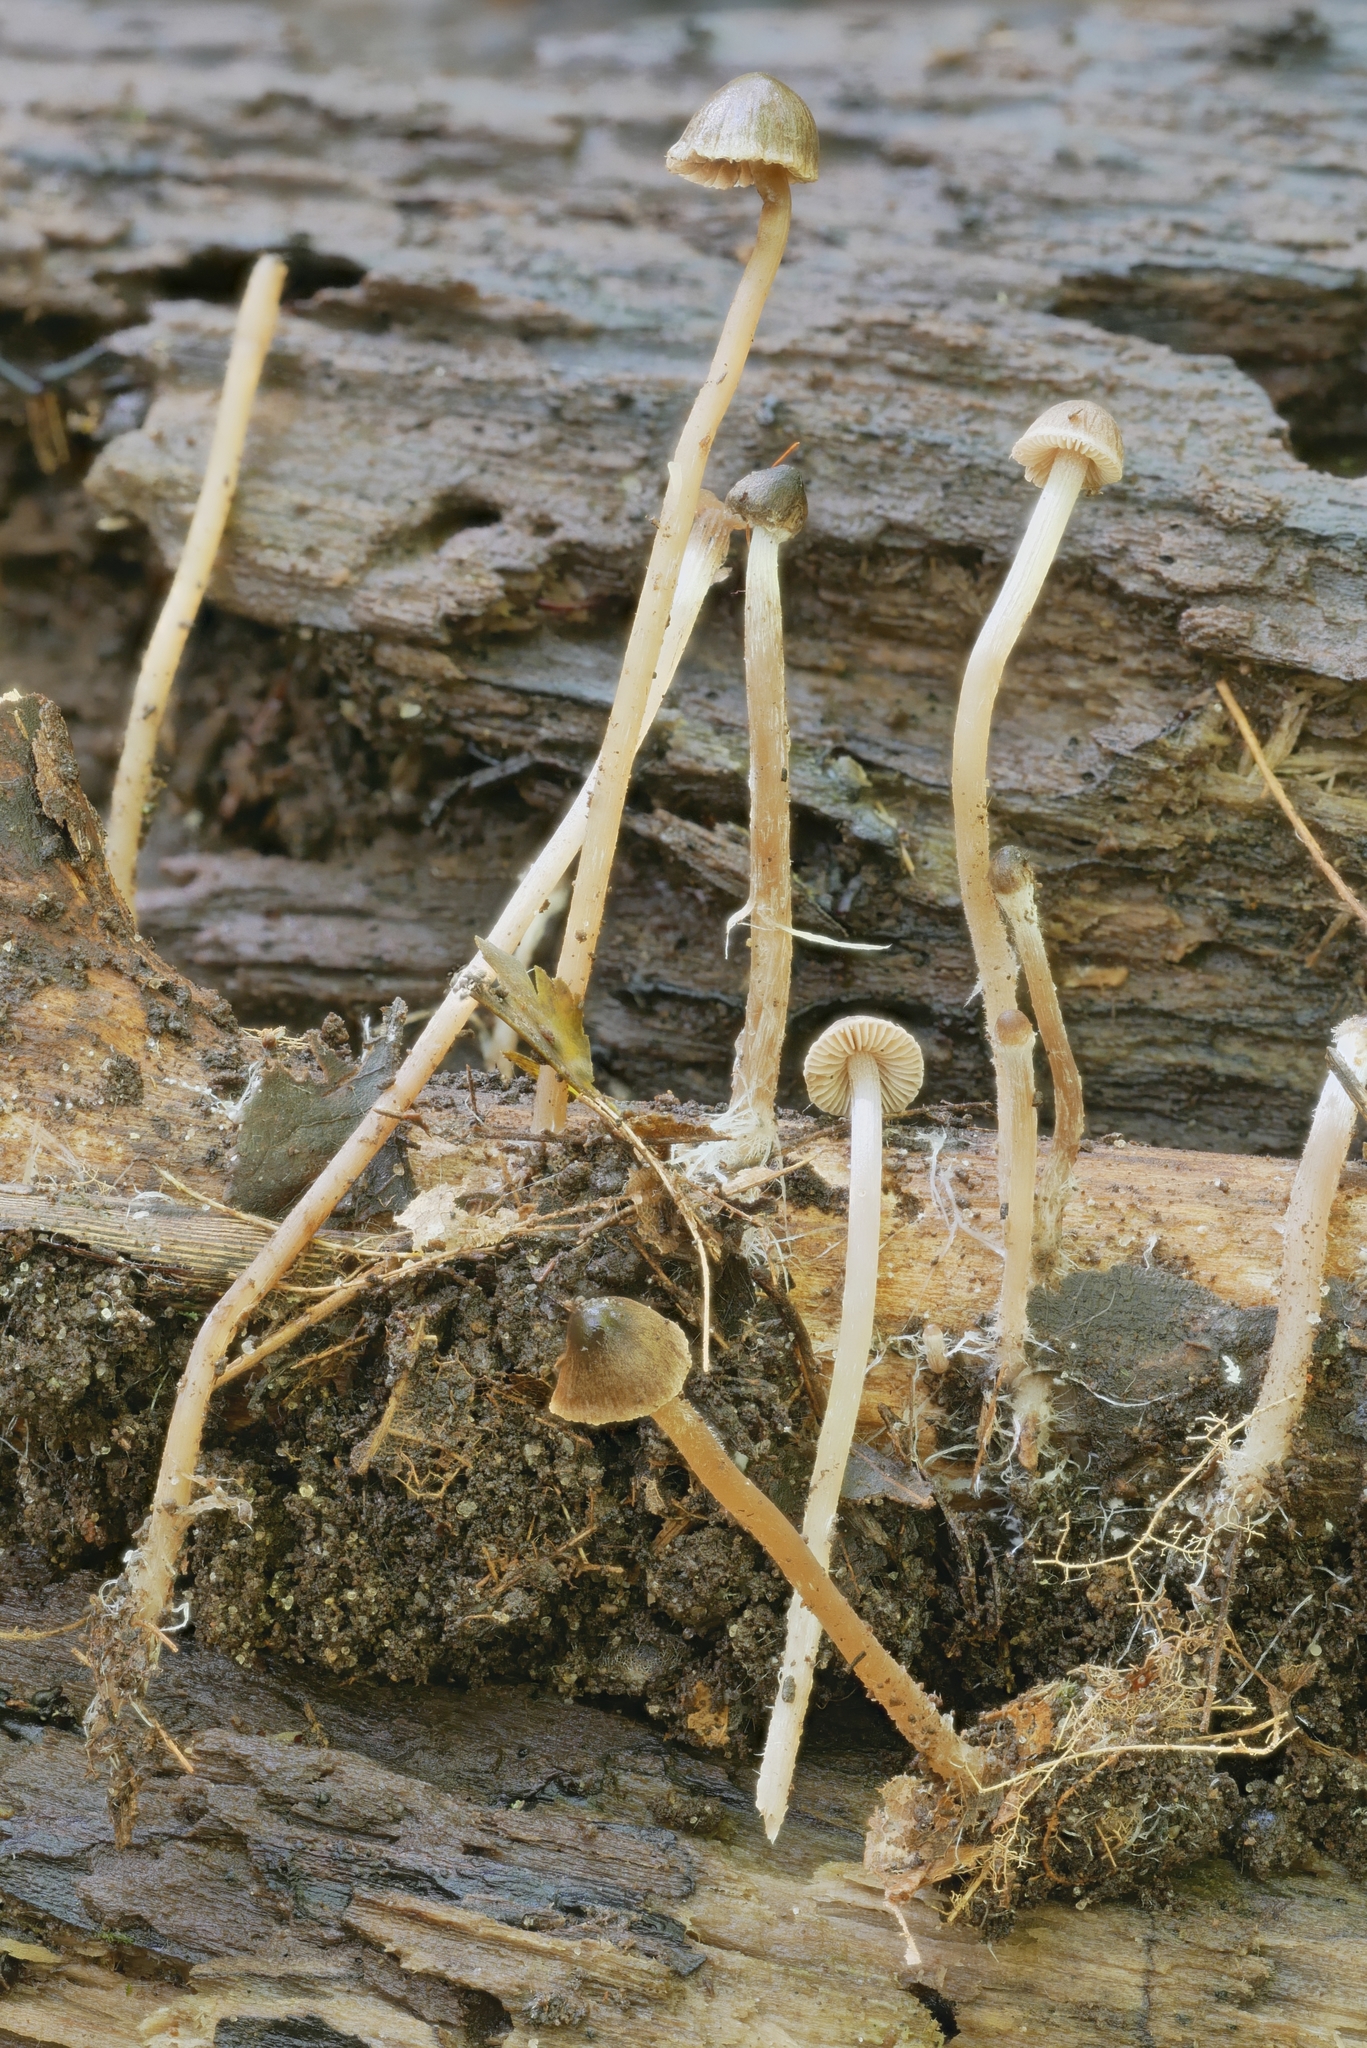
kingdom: Fungi
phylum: Basidiomycota
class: Agaricomycetes
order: Agaricales
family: Psathyrellaceae
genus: Psathyrella
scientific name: Psathyrella senex
